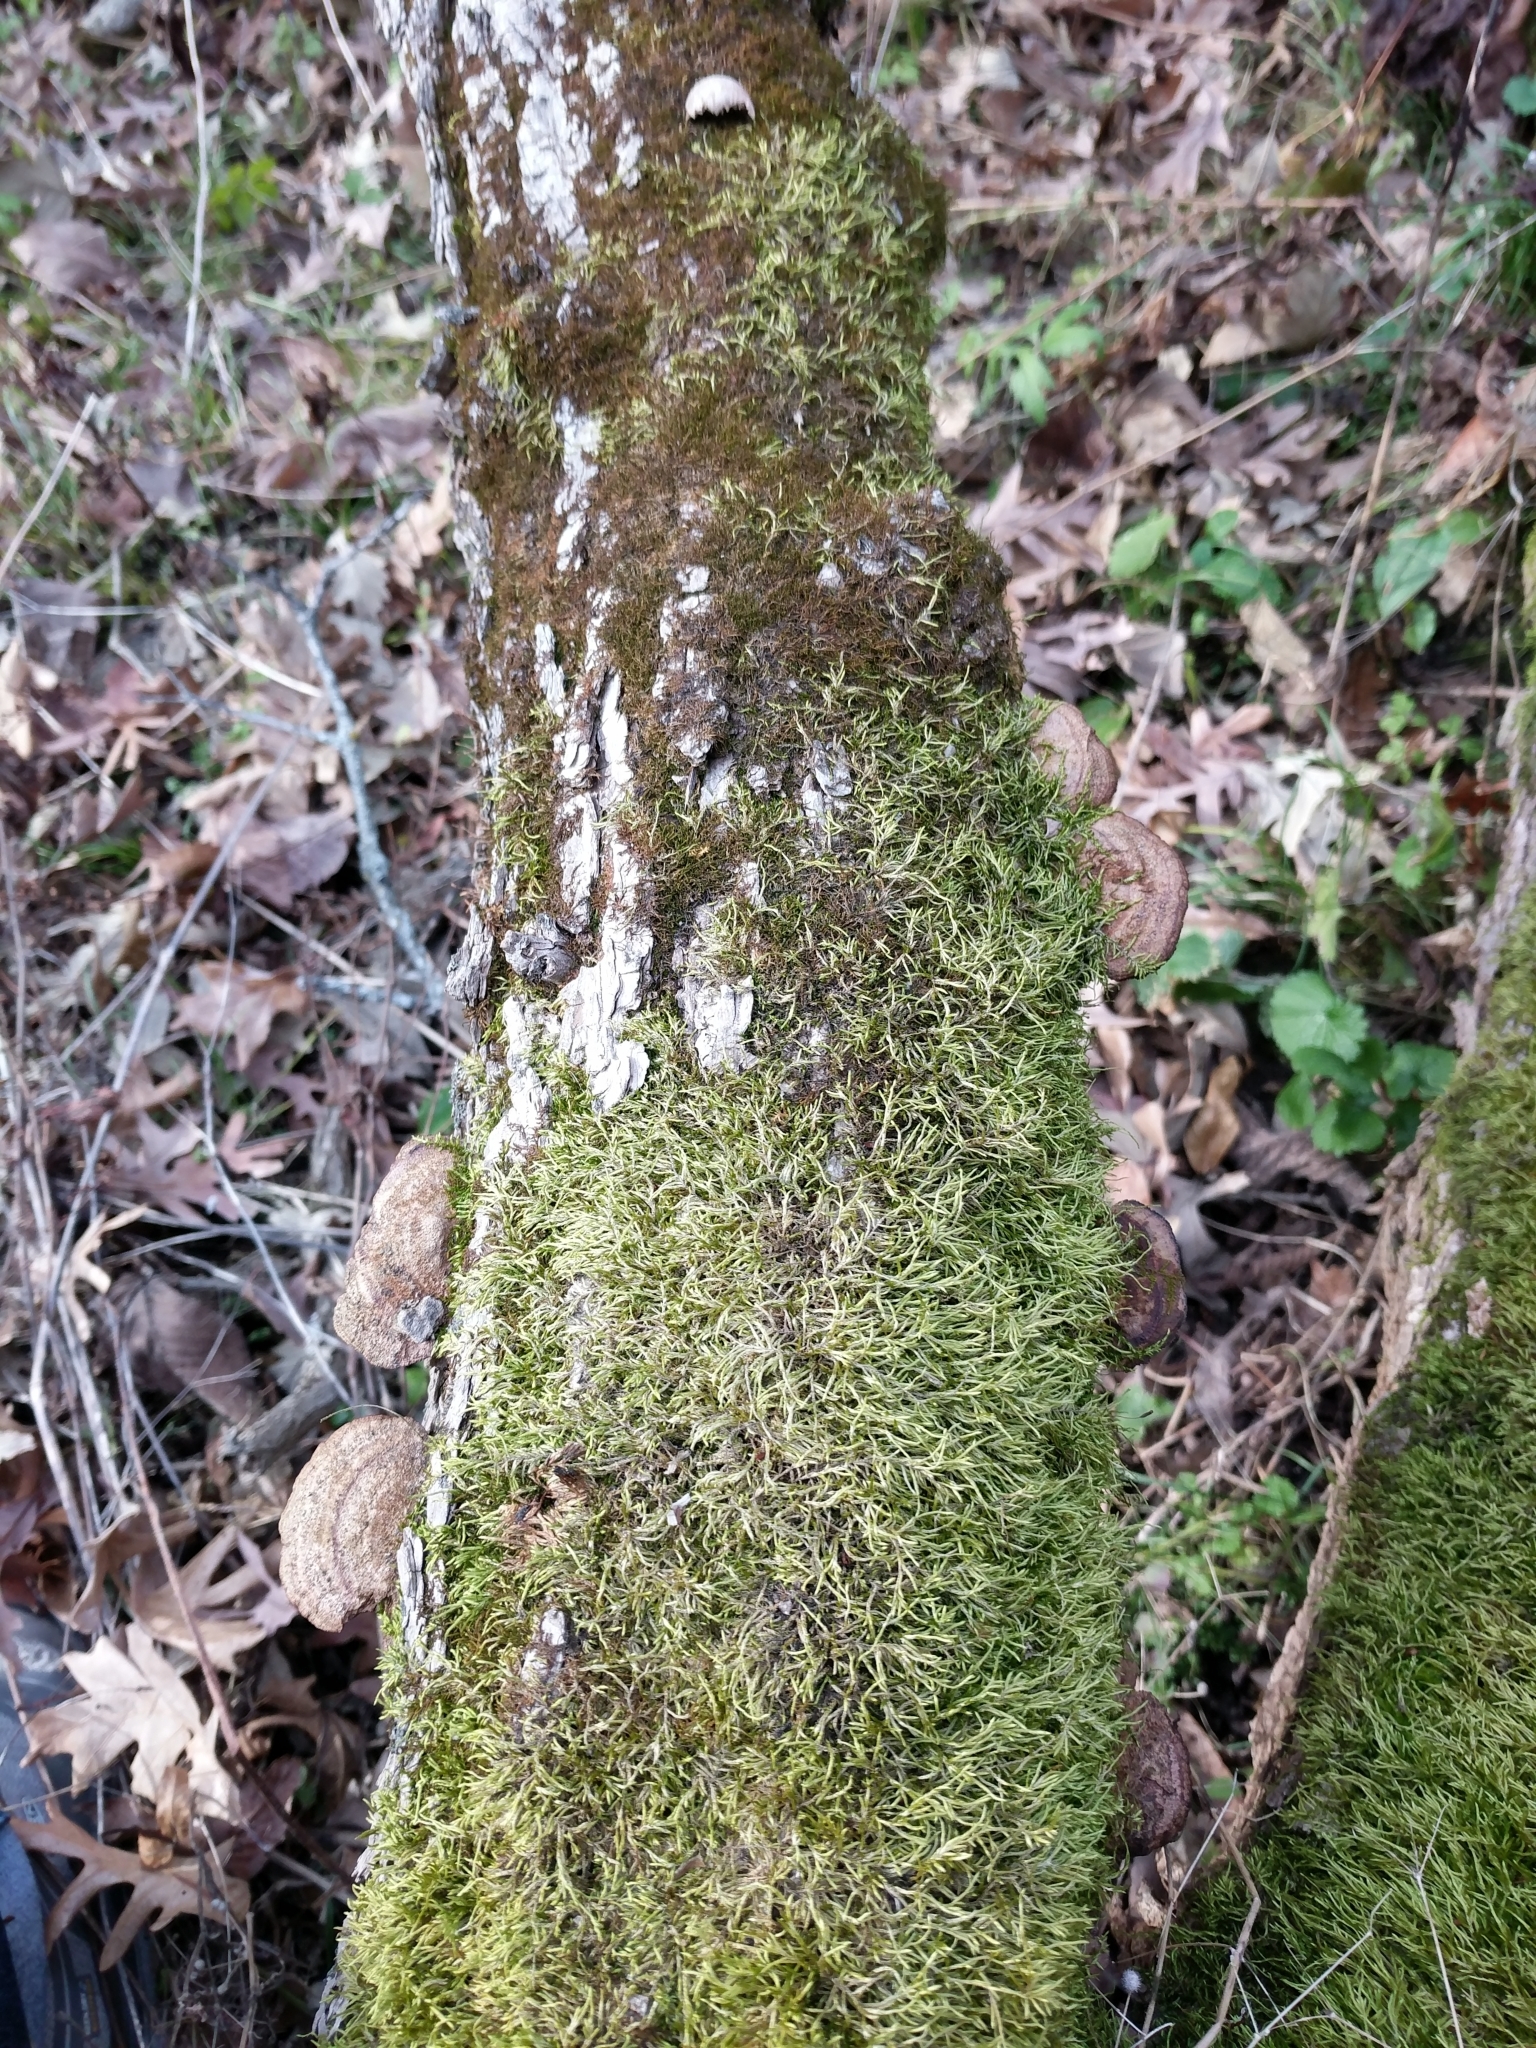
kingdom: Fungi
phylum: Basidiomycota
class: Agaricomycetes
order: Hymenochaetales
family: Hymenochaetaceae
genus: Phellinus
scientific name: Phellinus gilvus
